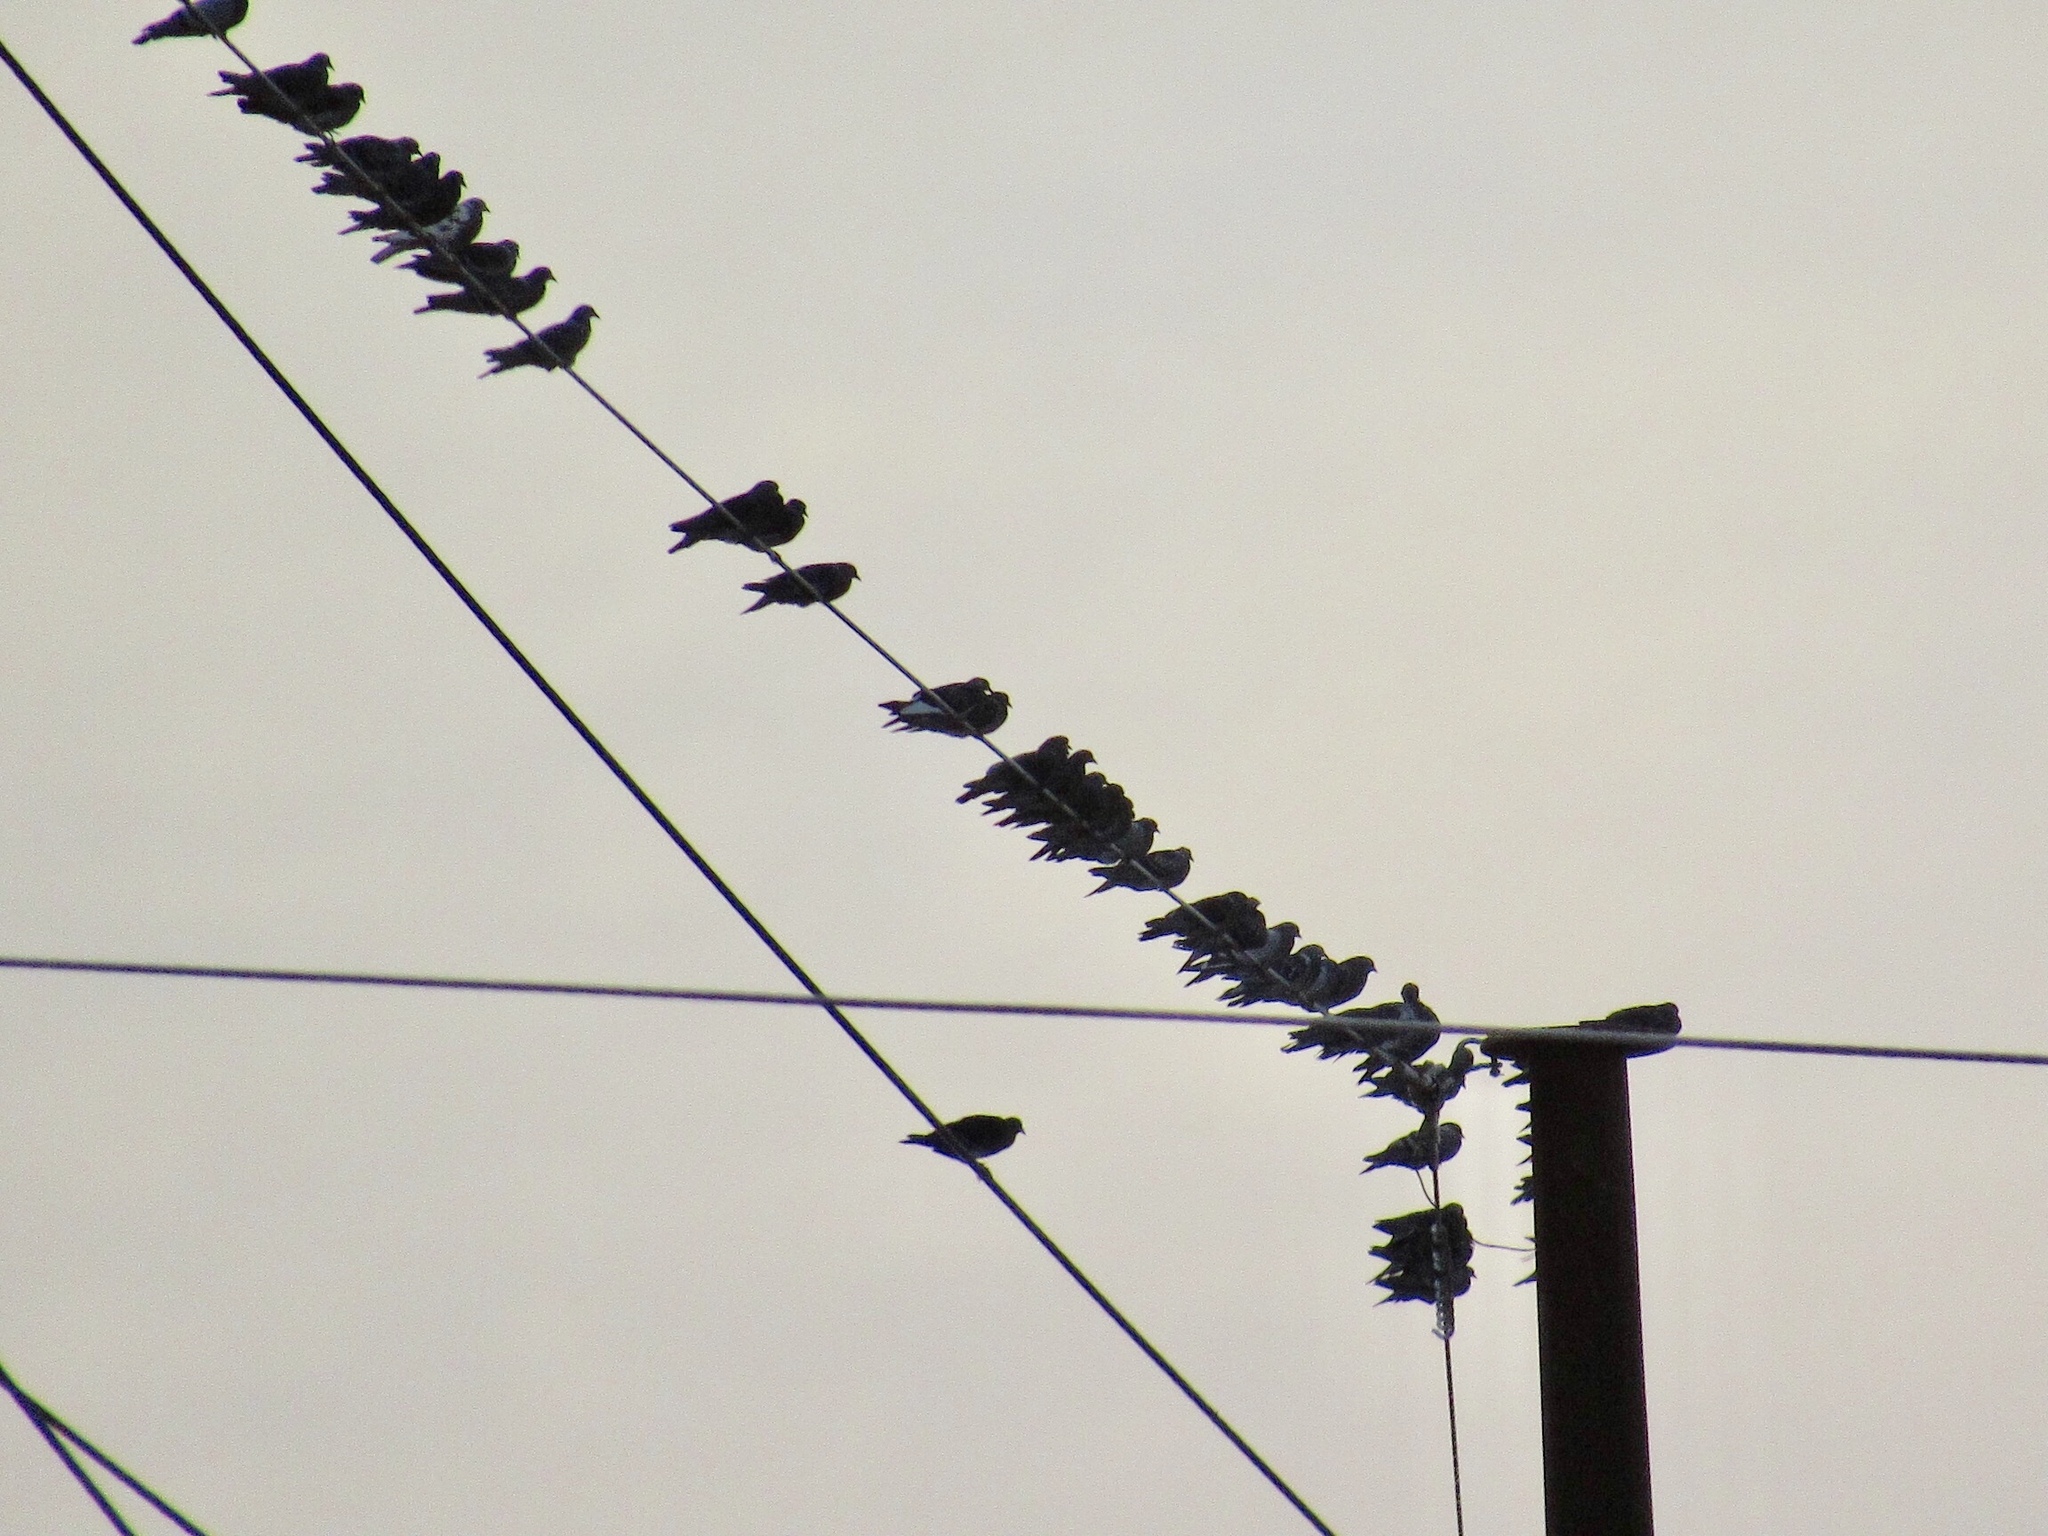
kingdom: Animalia
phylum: Chordata
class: Aves
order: Columbiformes
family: Columbidae
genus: Columba
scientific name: Columba livia
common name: Rock pigeon
